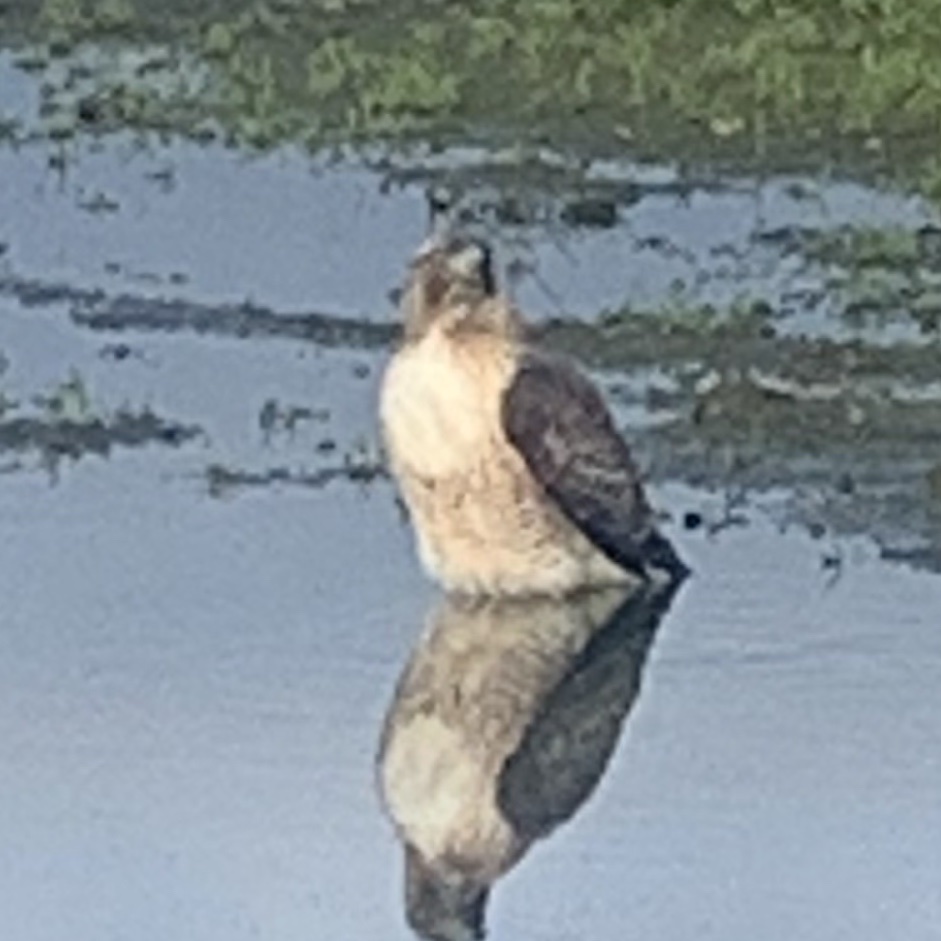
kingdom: Animalia
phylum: Chordata
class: Aves
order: Accipitriformes
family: Accipitridae
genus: Buteo
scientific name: Buteo jamaicensis
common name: Red-tailed hawk
